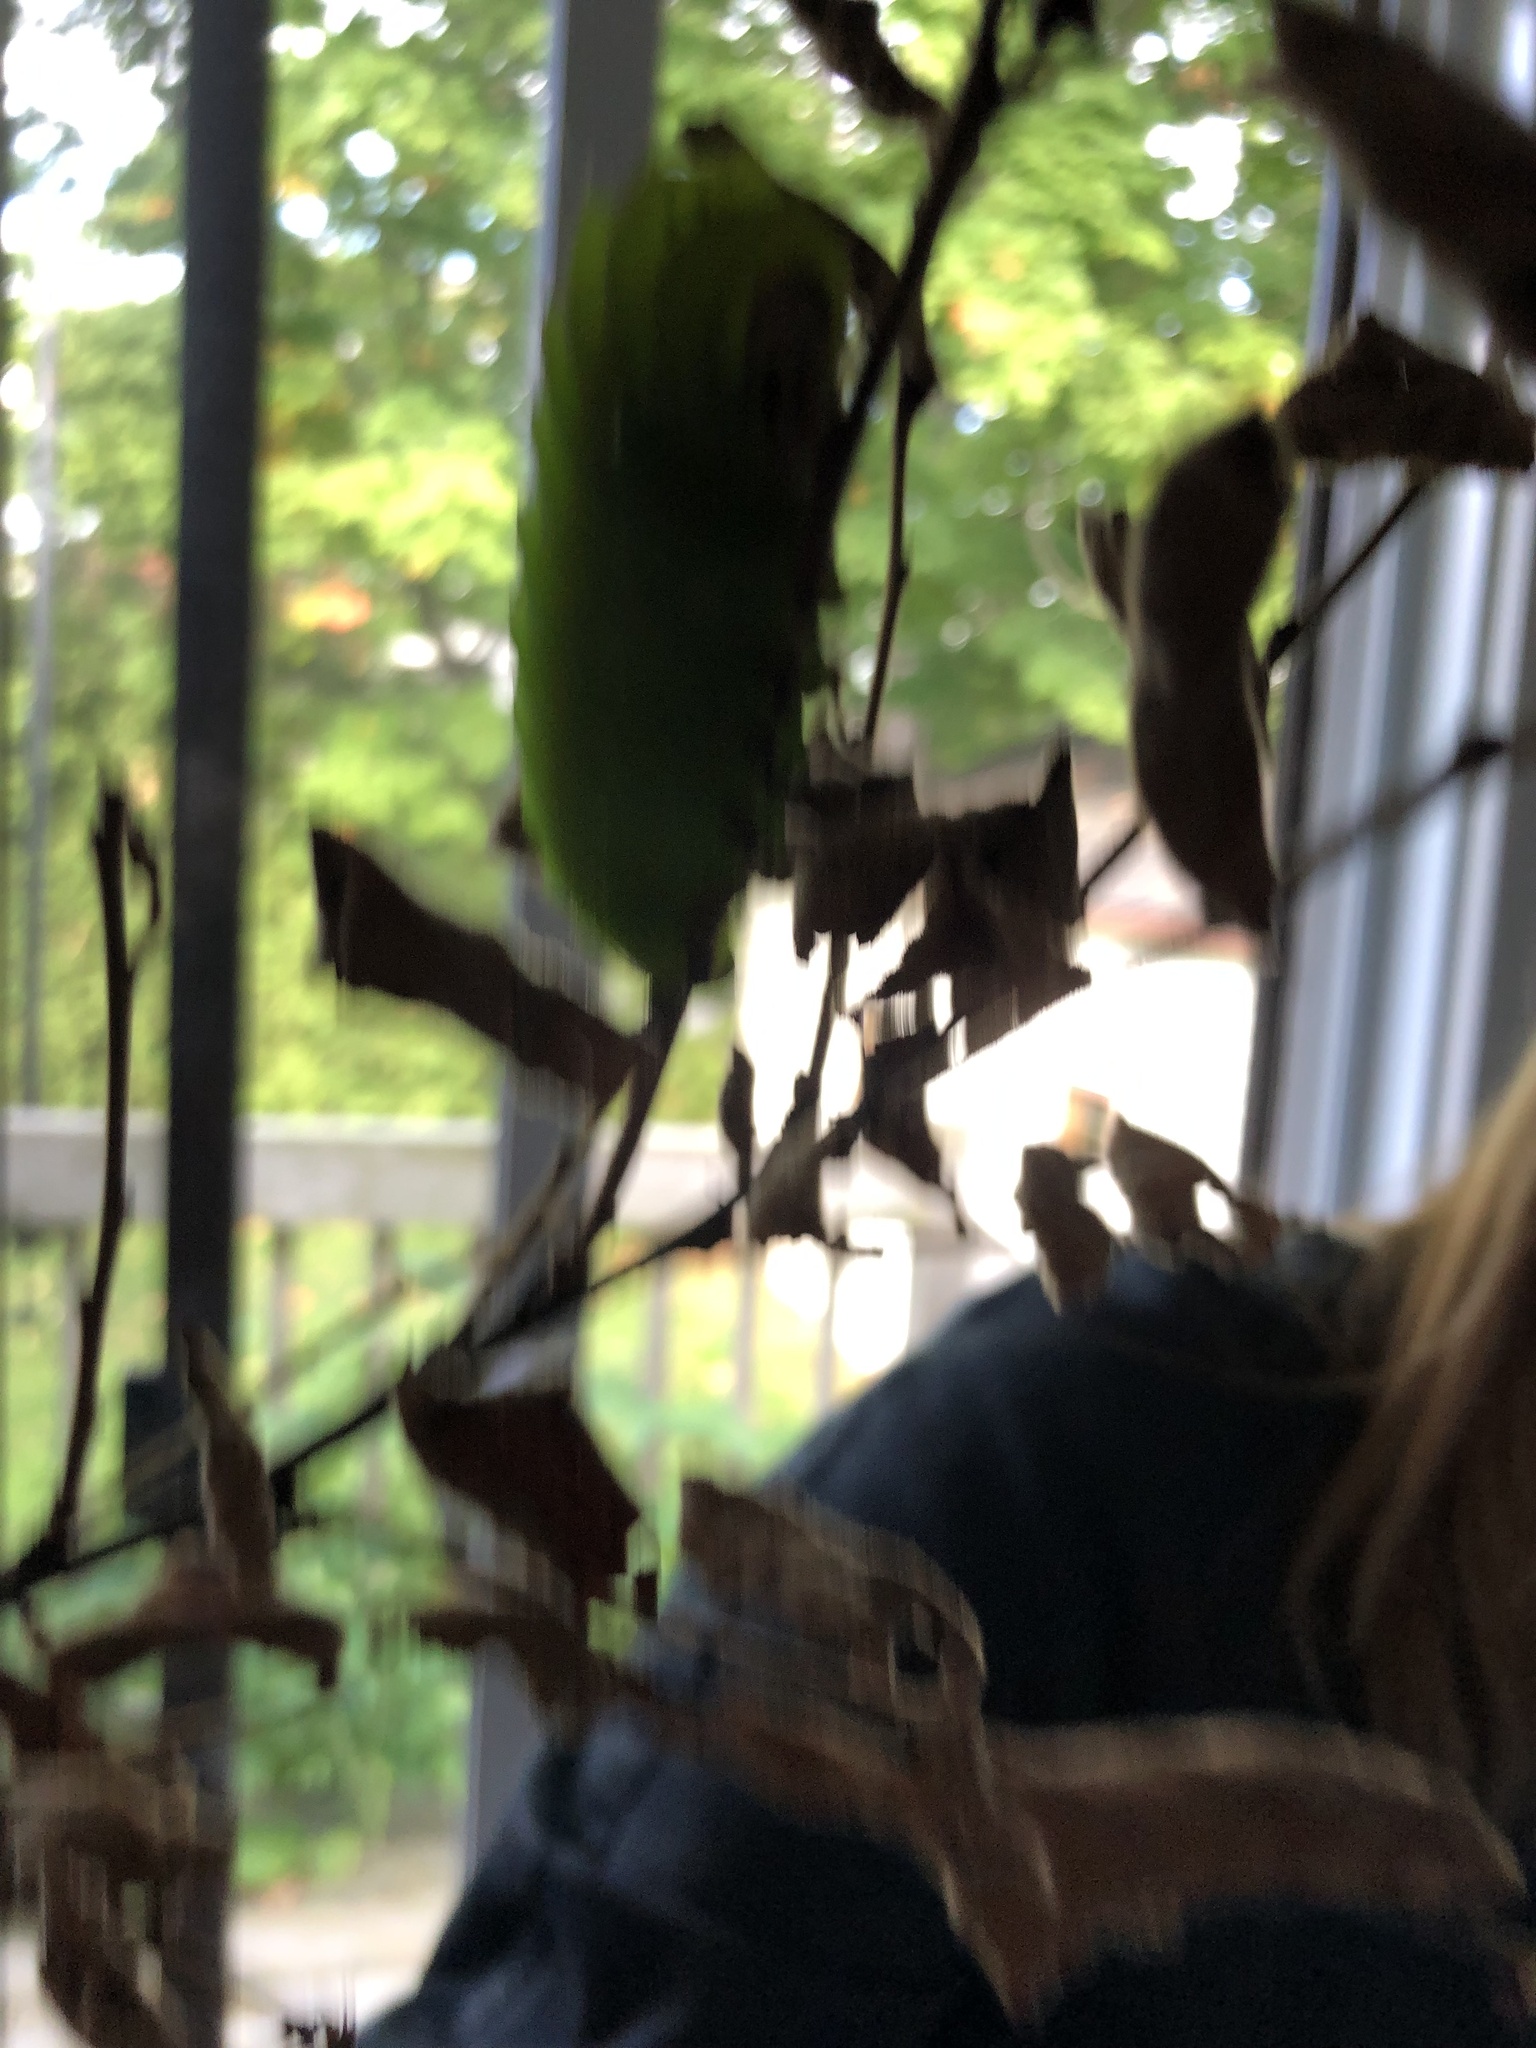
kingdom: Animalia
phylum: Arthropoda
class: Insecta
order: Lepidoptera
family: Saturniidae
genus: Antheraea
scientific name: Antheraea polyphemus
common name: Polyphemus moth
